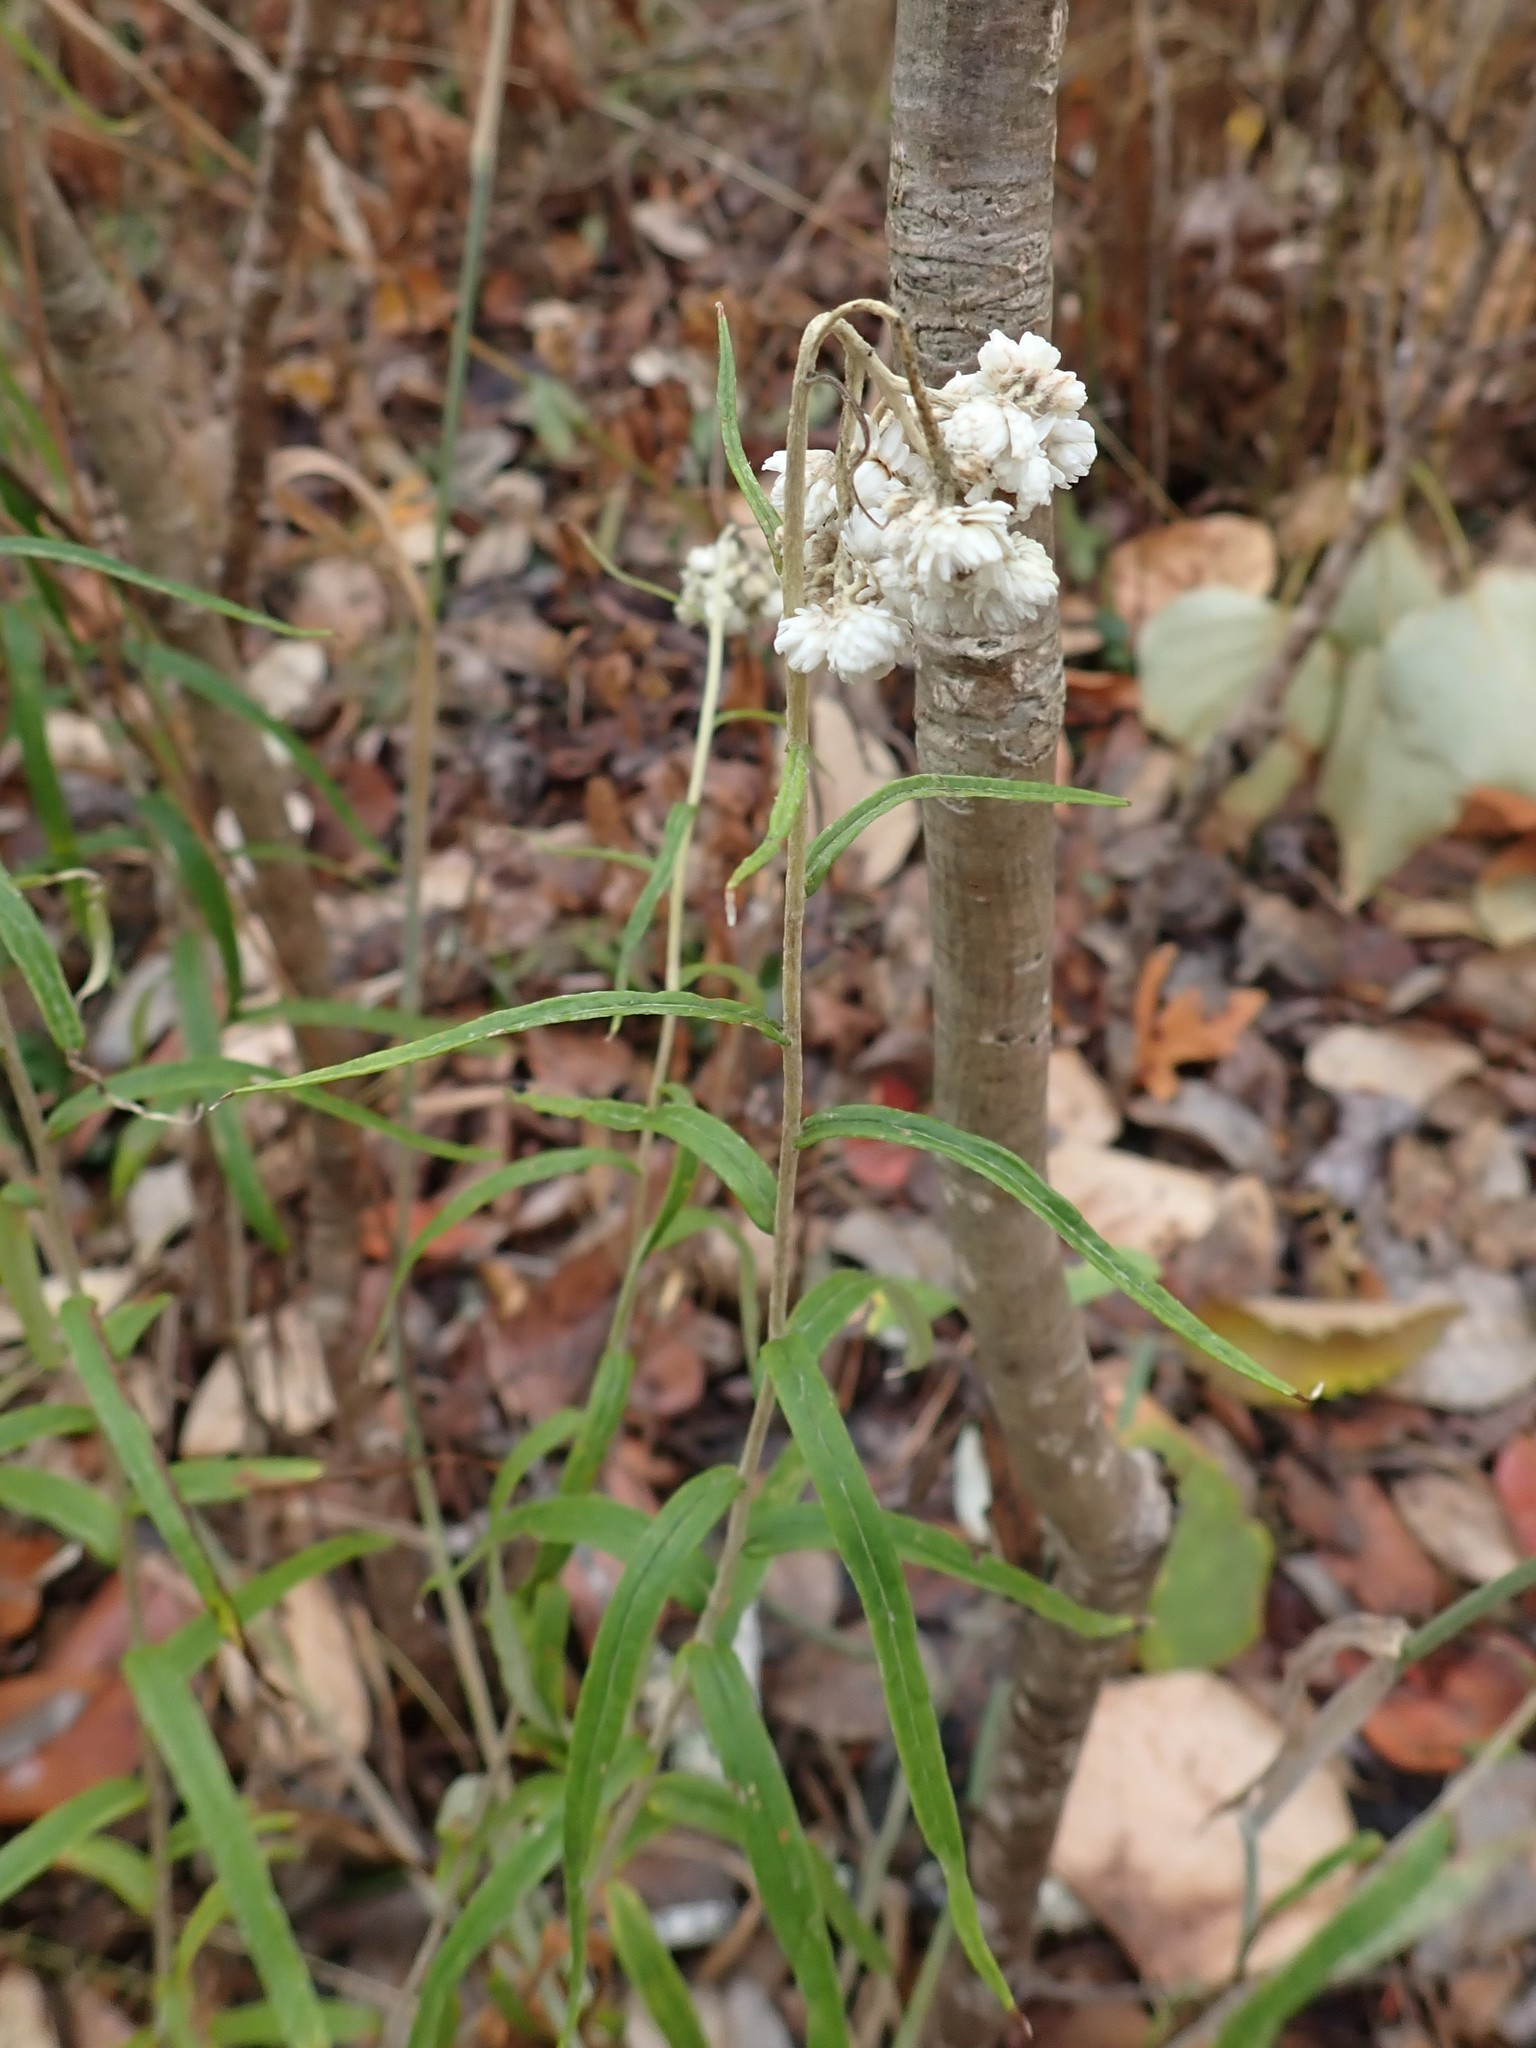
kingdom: Plantae
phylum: Tracheophyta
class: Magnoliopsida
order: Asterales
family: Asteraceae
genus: Anaphalis
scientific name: Anaphalis margaritacea
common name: Pearly everlasting
